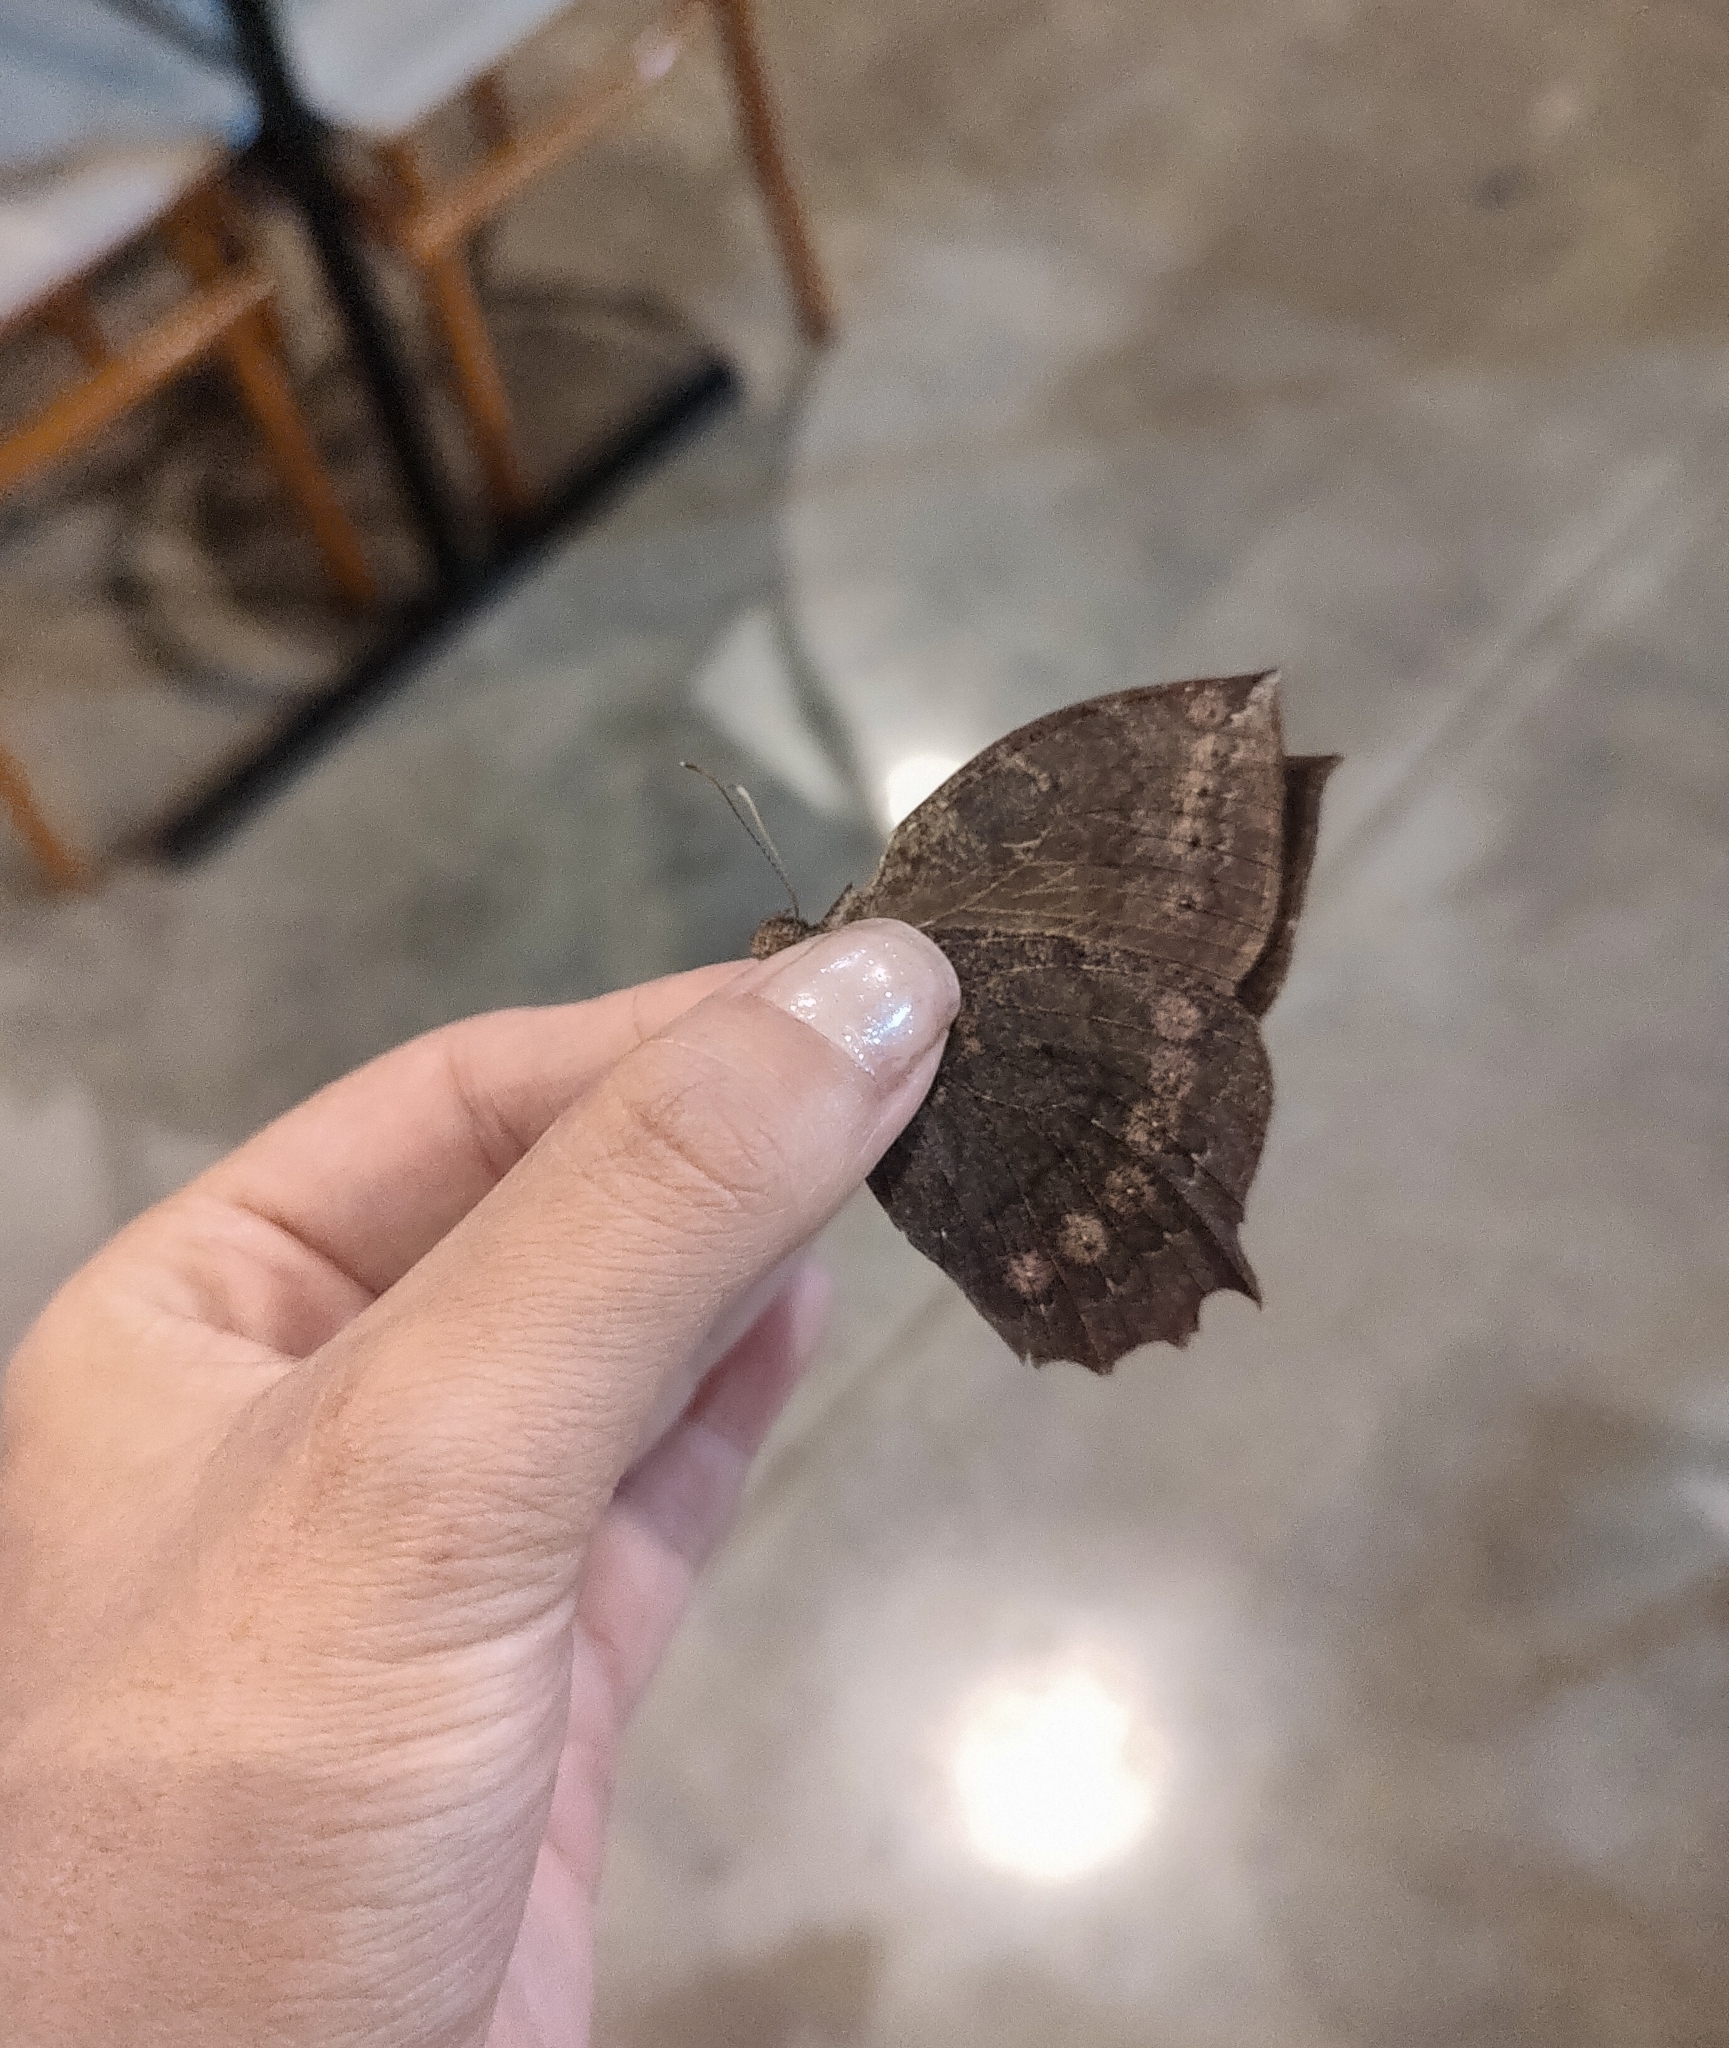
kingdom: Animalia
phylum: Arthropoda
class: Insecta
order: Lepidoptera
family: Nymphalidae
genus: Taygetis
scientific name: Taygetis larua
